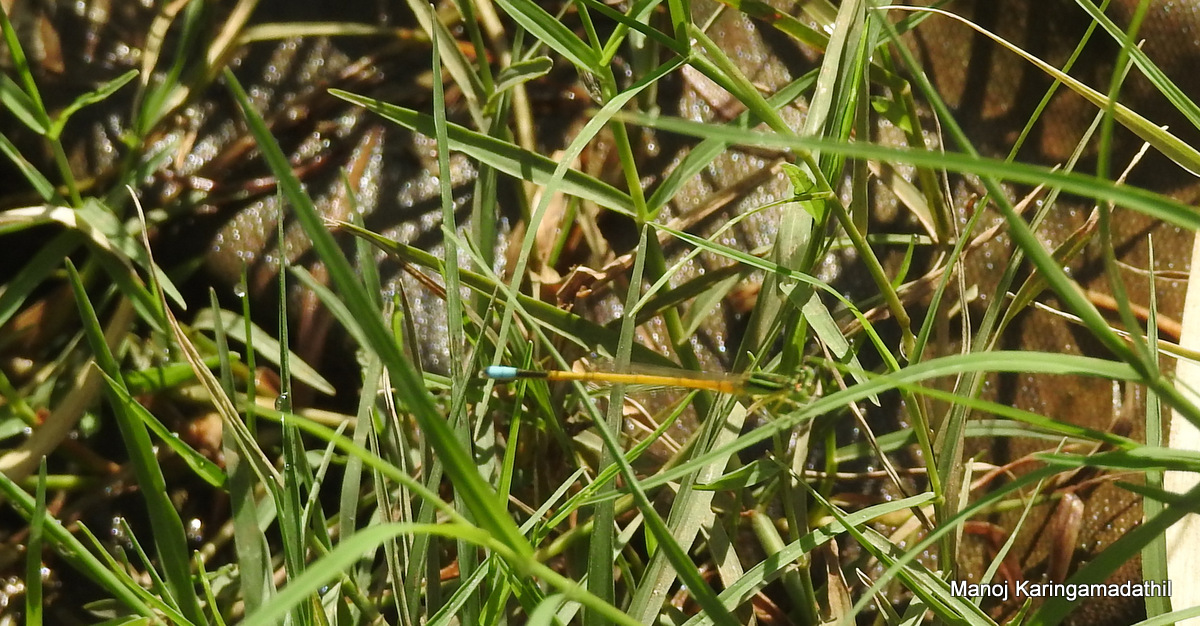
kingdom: Animalia
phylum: Arthropoda
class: Insecta
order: Odonata
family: Coenagrionidae
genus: Ischnura
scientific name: Ischnura rubilio
